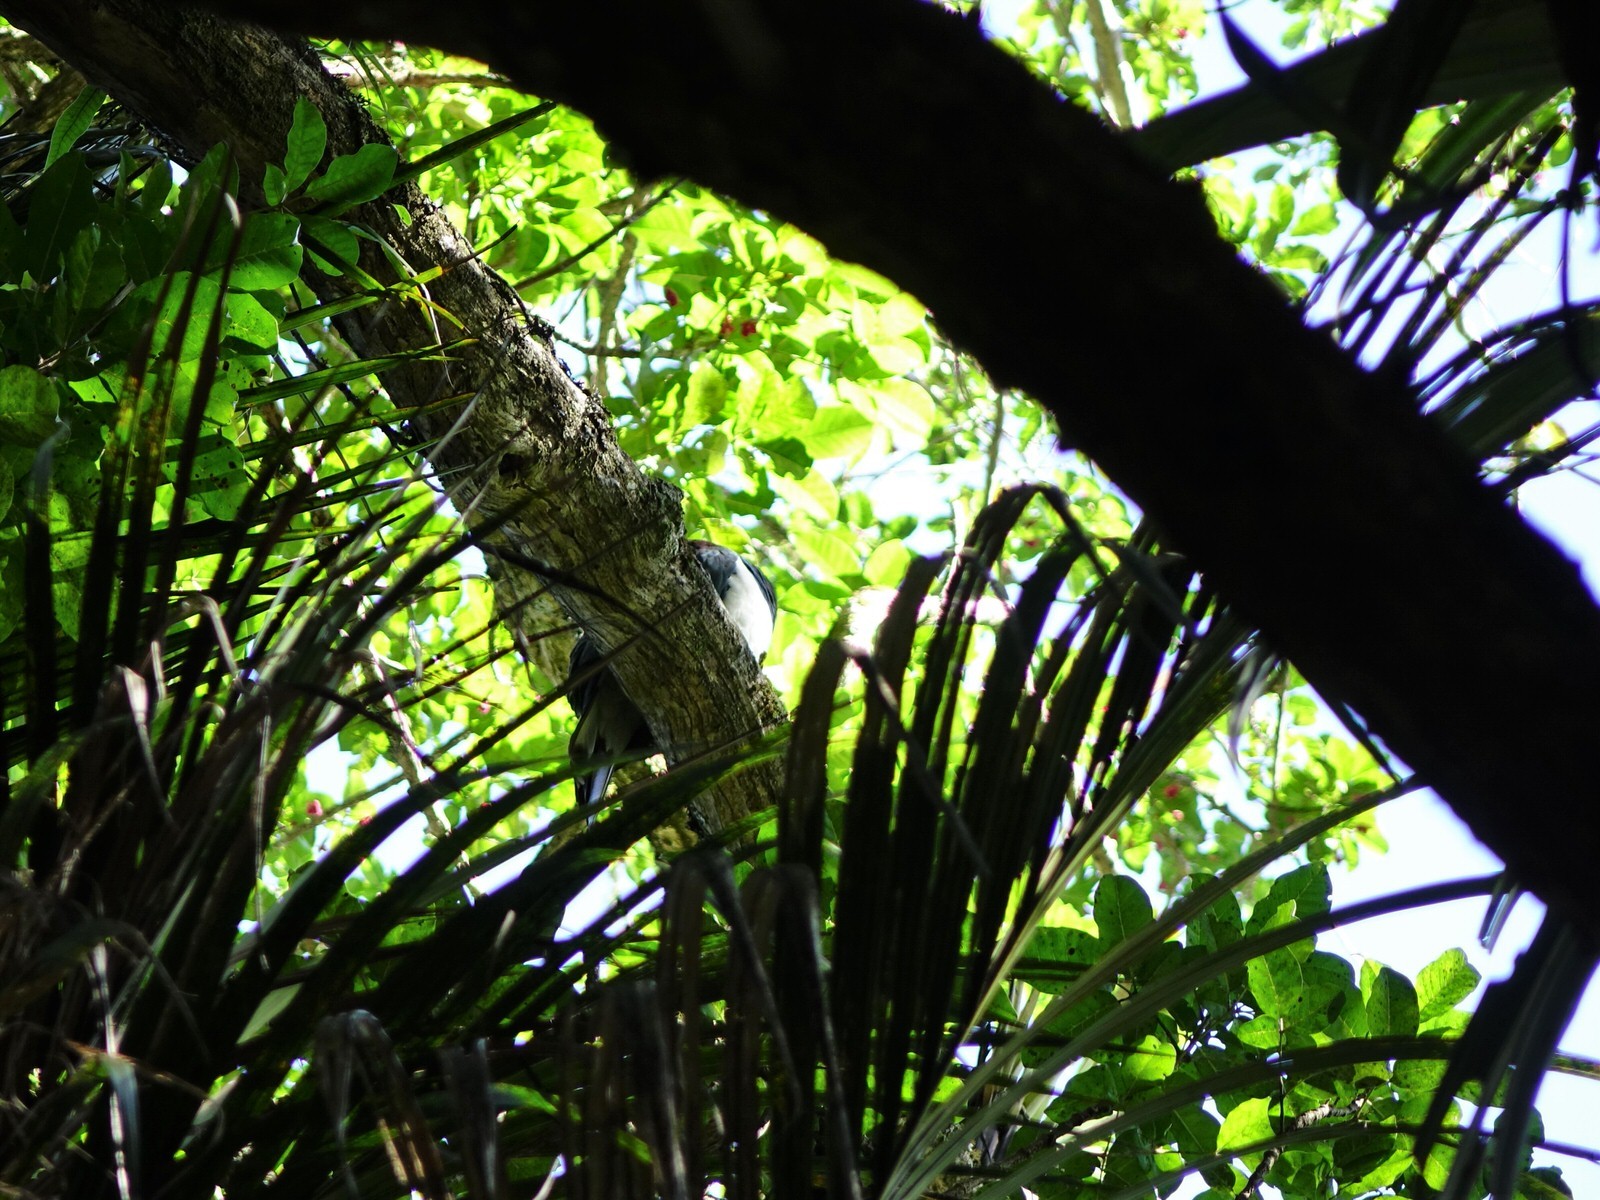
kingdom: Animalia
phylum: Chordata
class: Aves
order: Columbiformes
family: Columbidae
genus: Hemiphaga
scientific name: Hemiphaga novaeseelandiae
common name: New zealand pigeon
